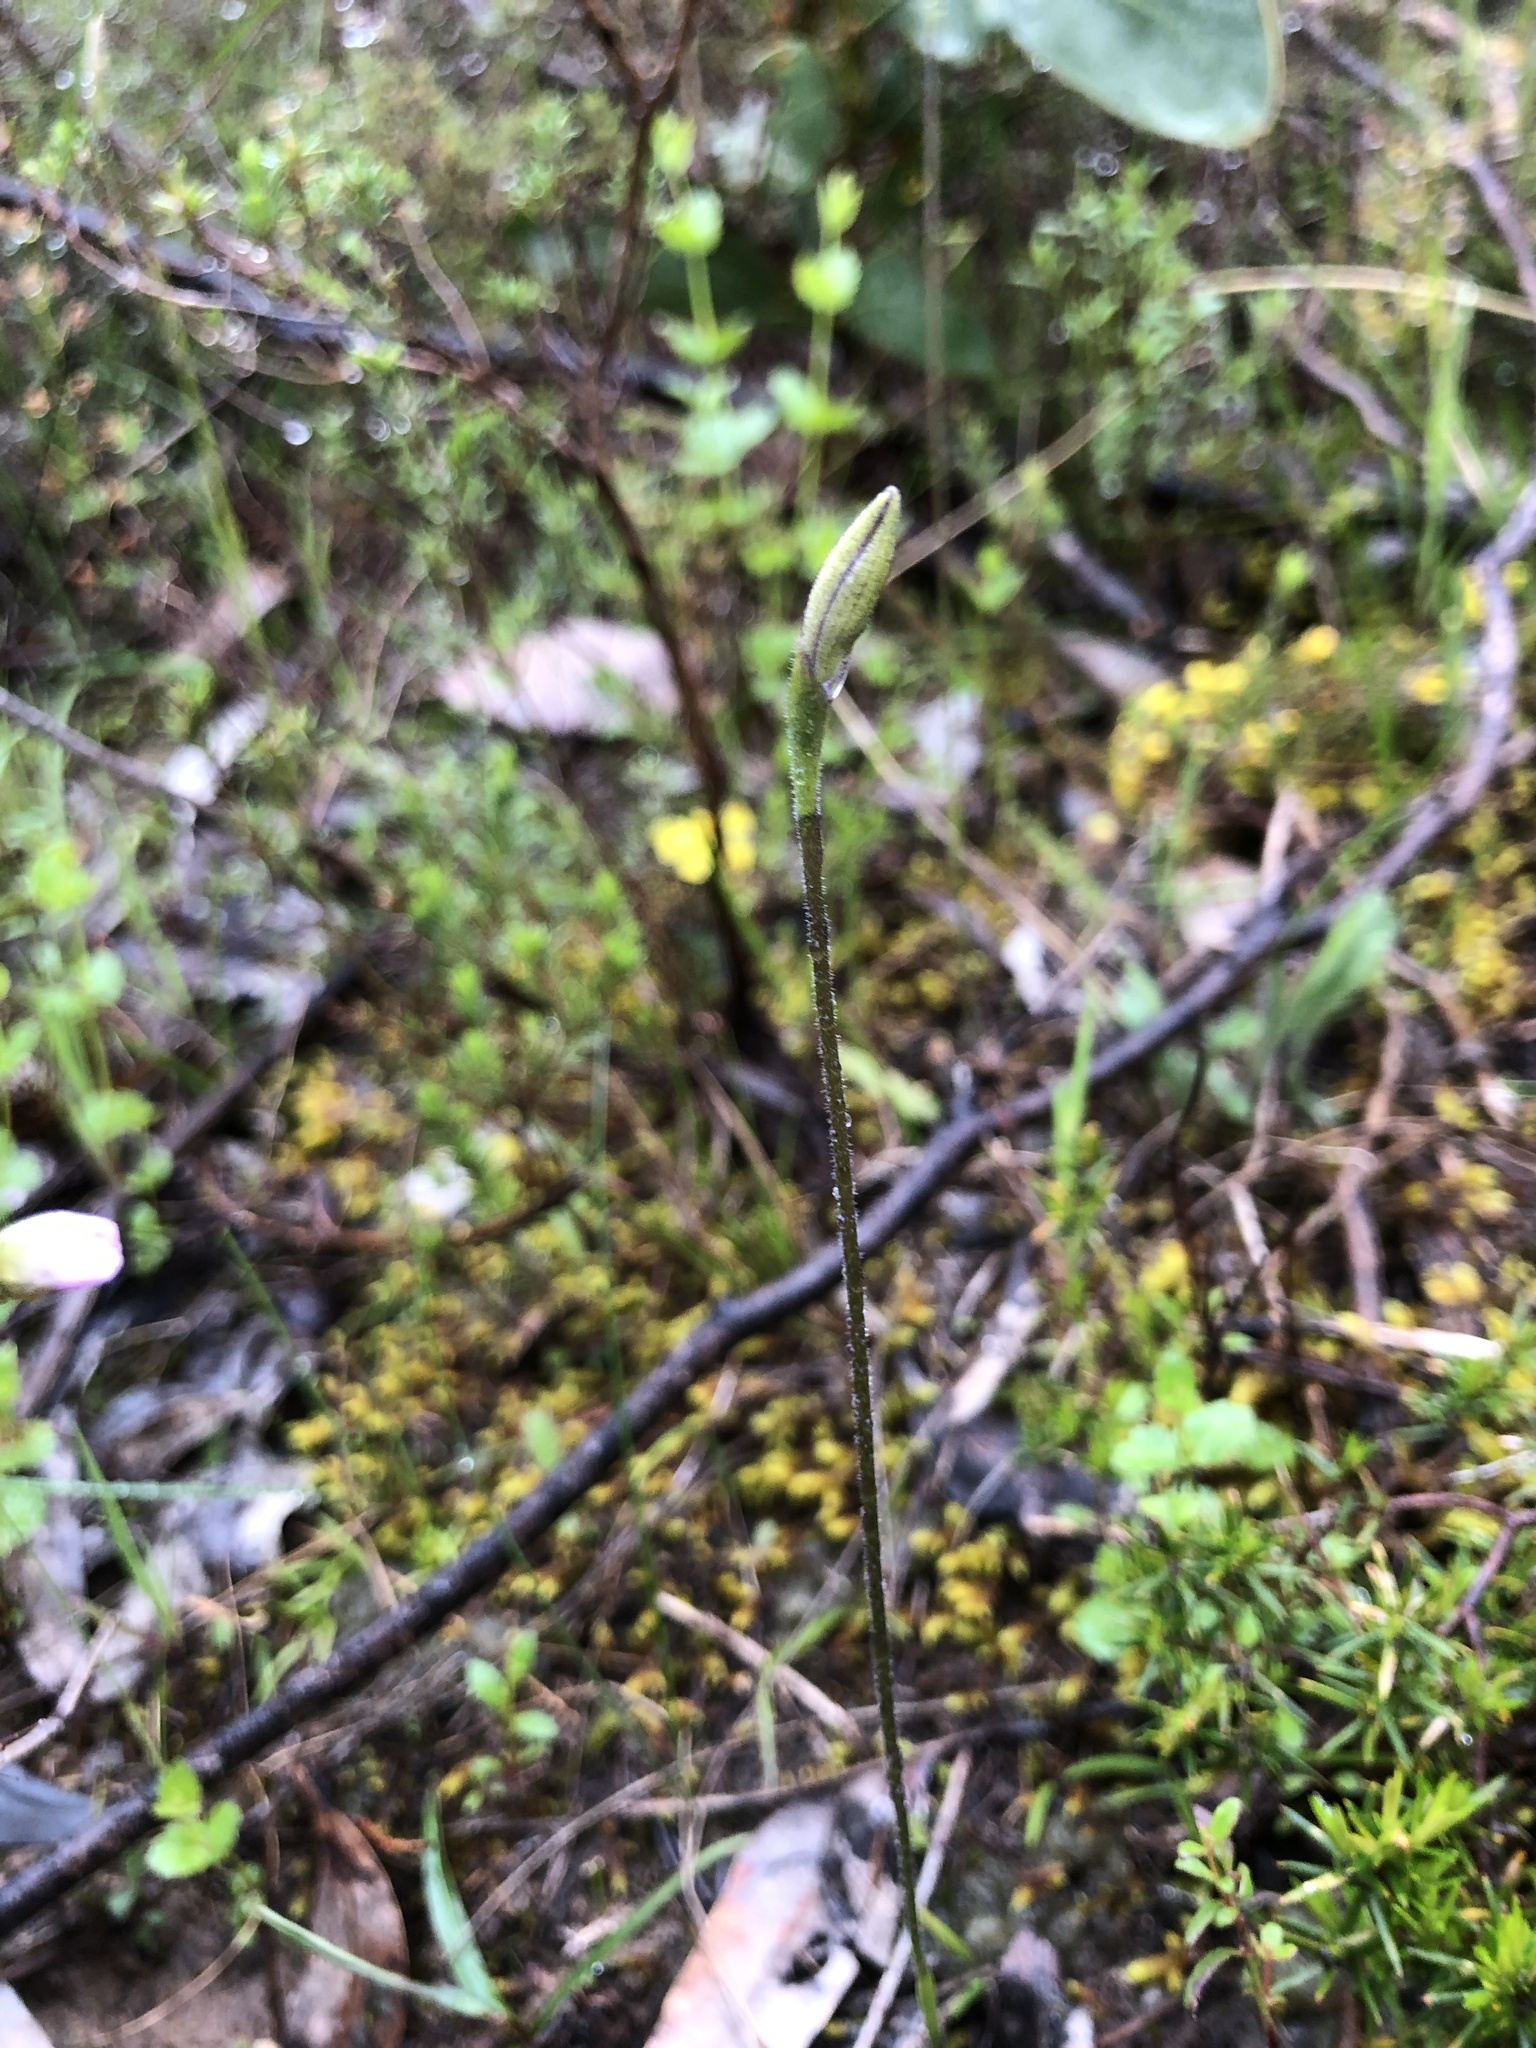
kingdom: Plantae
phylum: Tracheophyta
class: Liliopsida
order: Asparagales
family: Orchidaceae
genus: Caladenia
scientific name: Caladenia major
